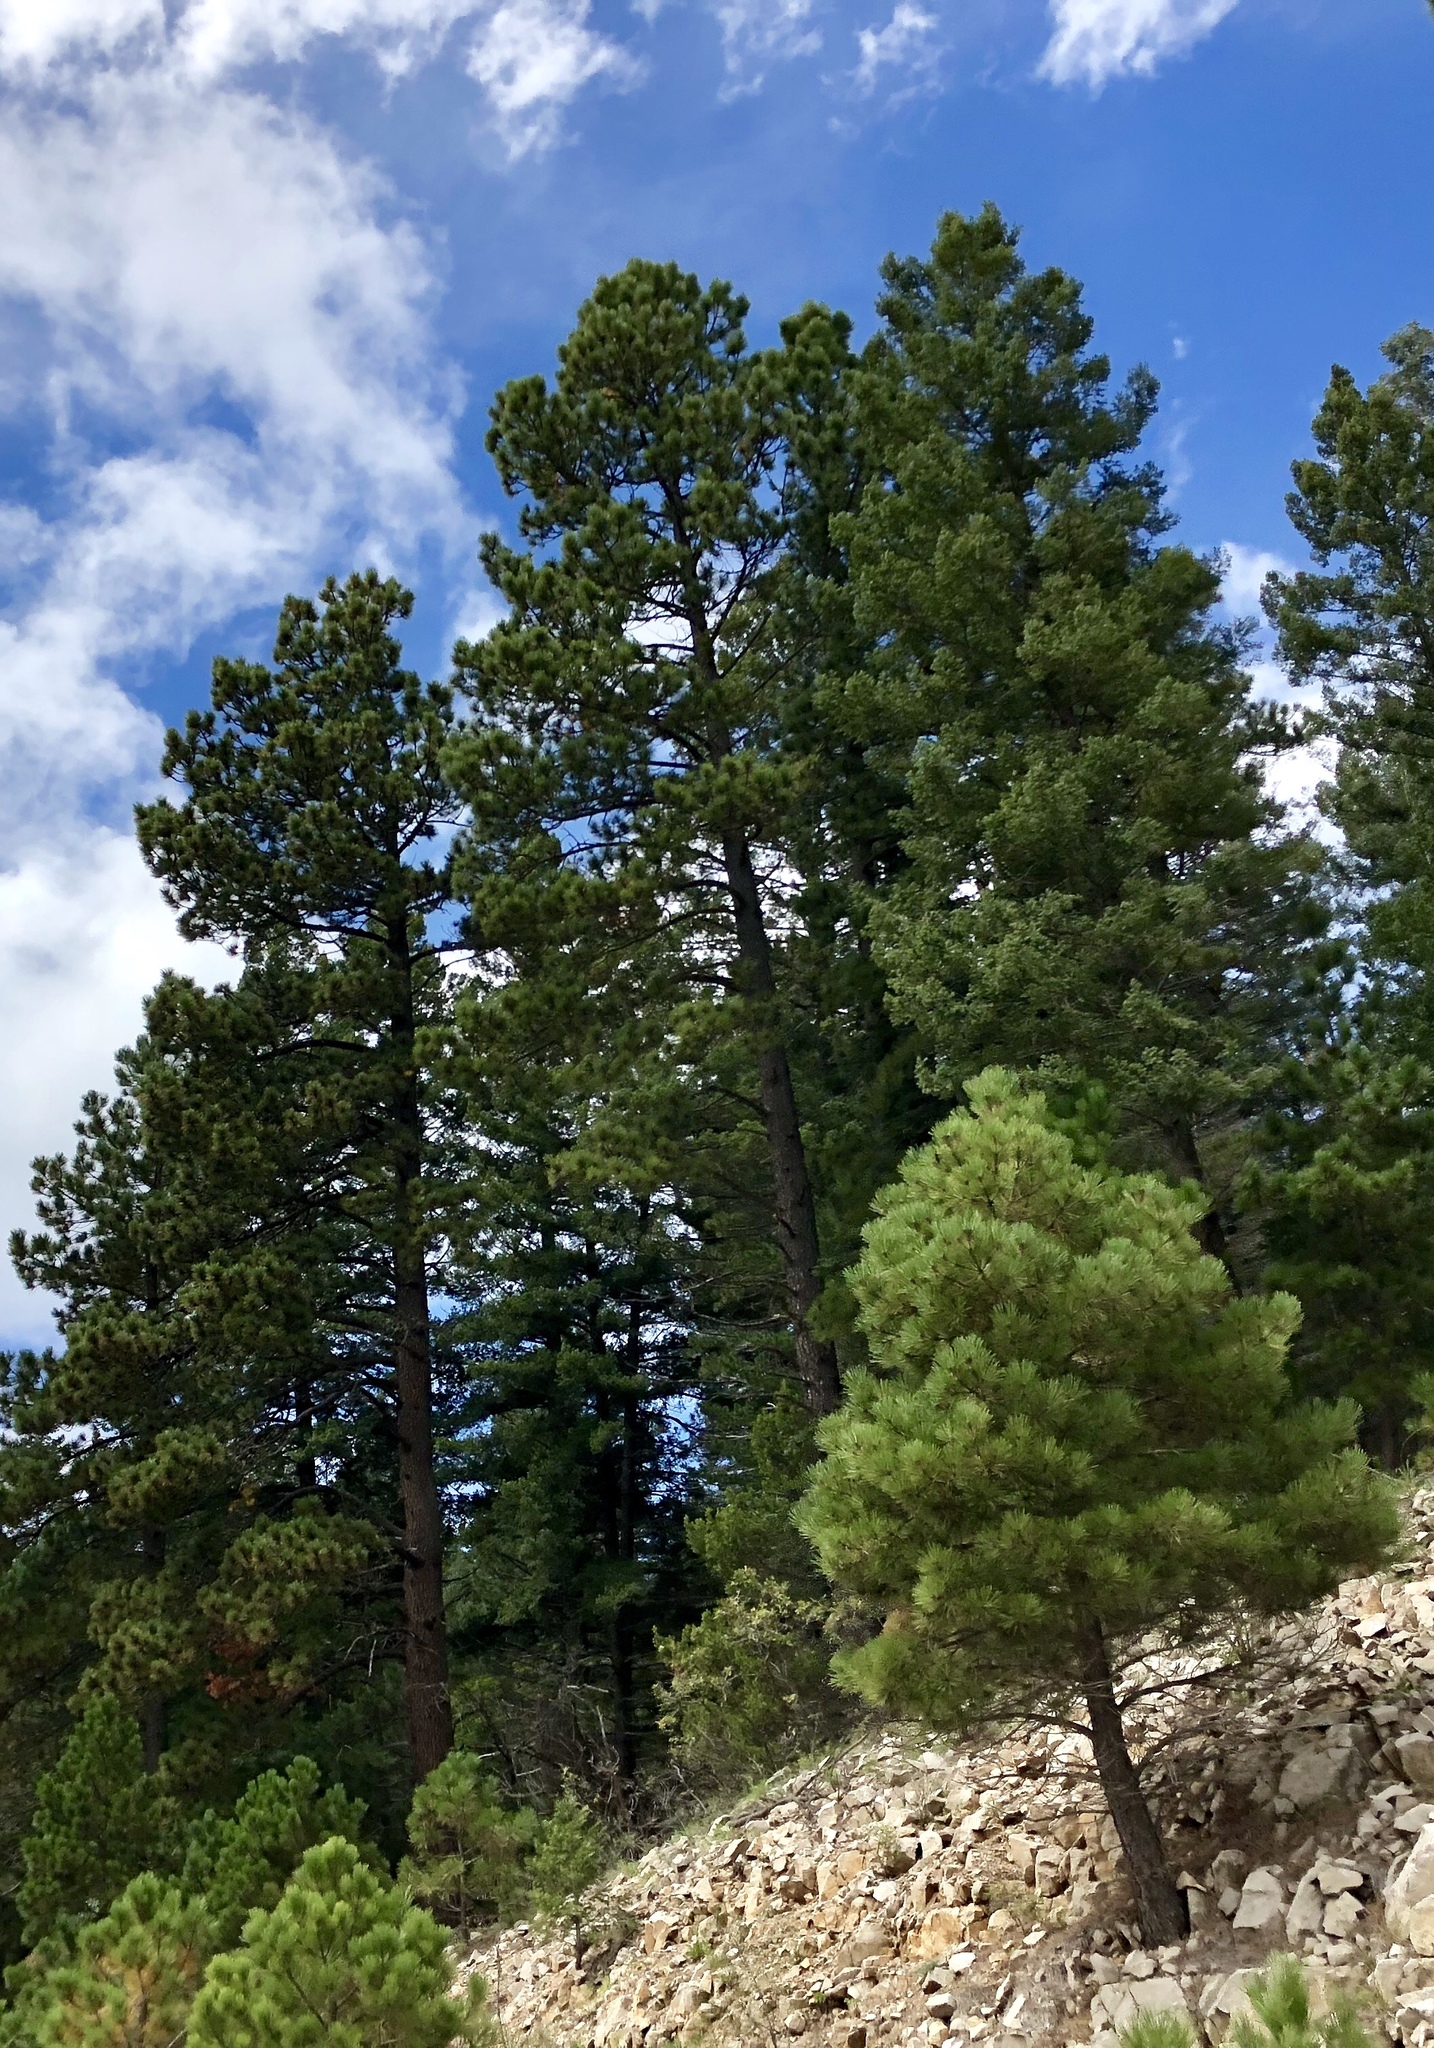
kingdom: Plantae
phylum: Tracheophyta
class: Pinopsida
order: Pinales
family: Pinaceae
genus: Pinus
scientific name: Pinus ponderosa
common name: Western yellow-pine
